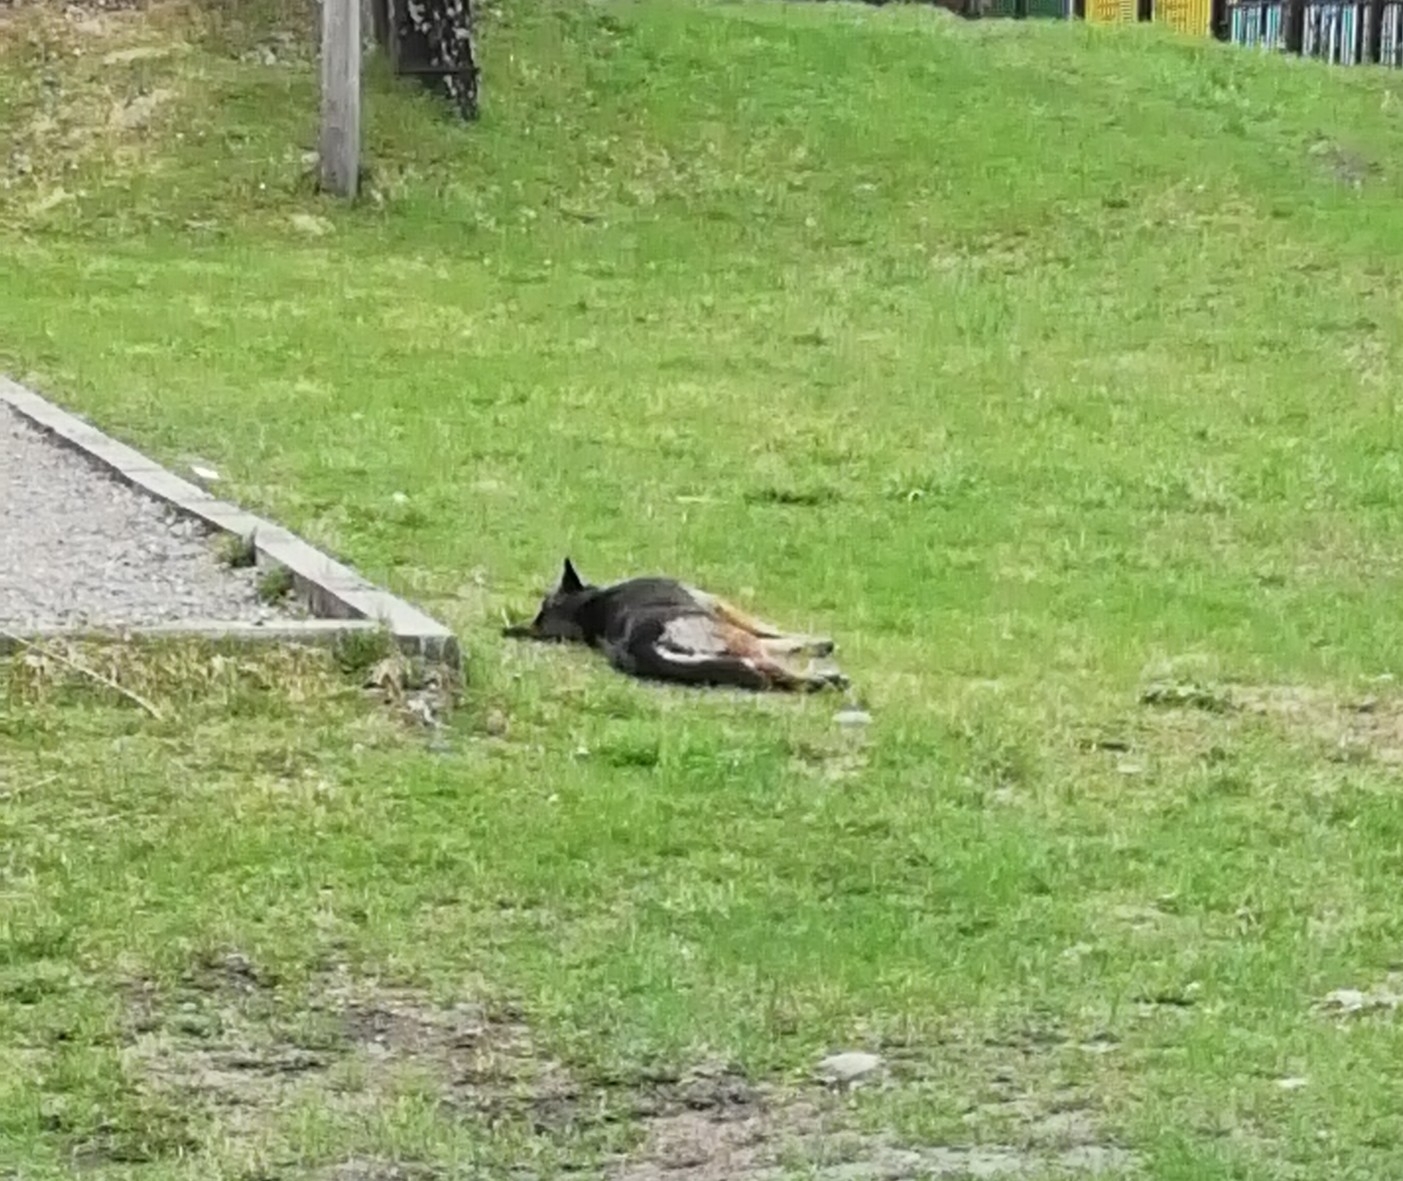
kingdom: Animalia
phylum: Chordata
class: Mammalia
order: Carnivora
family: Canidae
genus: Canis
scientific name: Canis lupus
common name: Gray wolf
